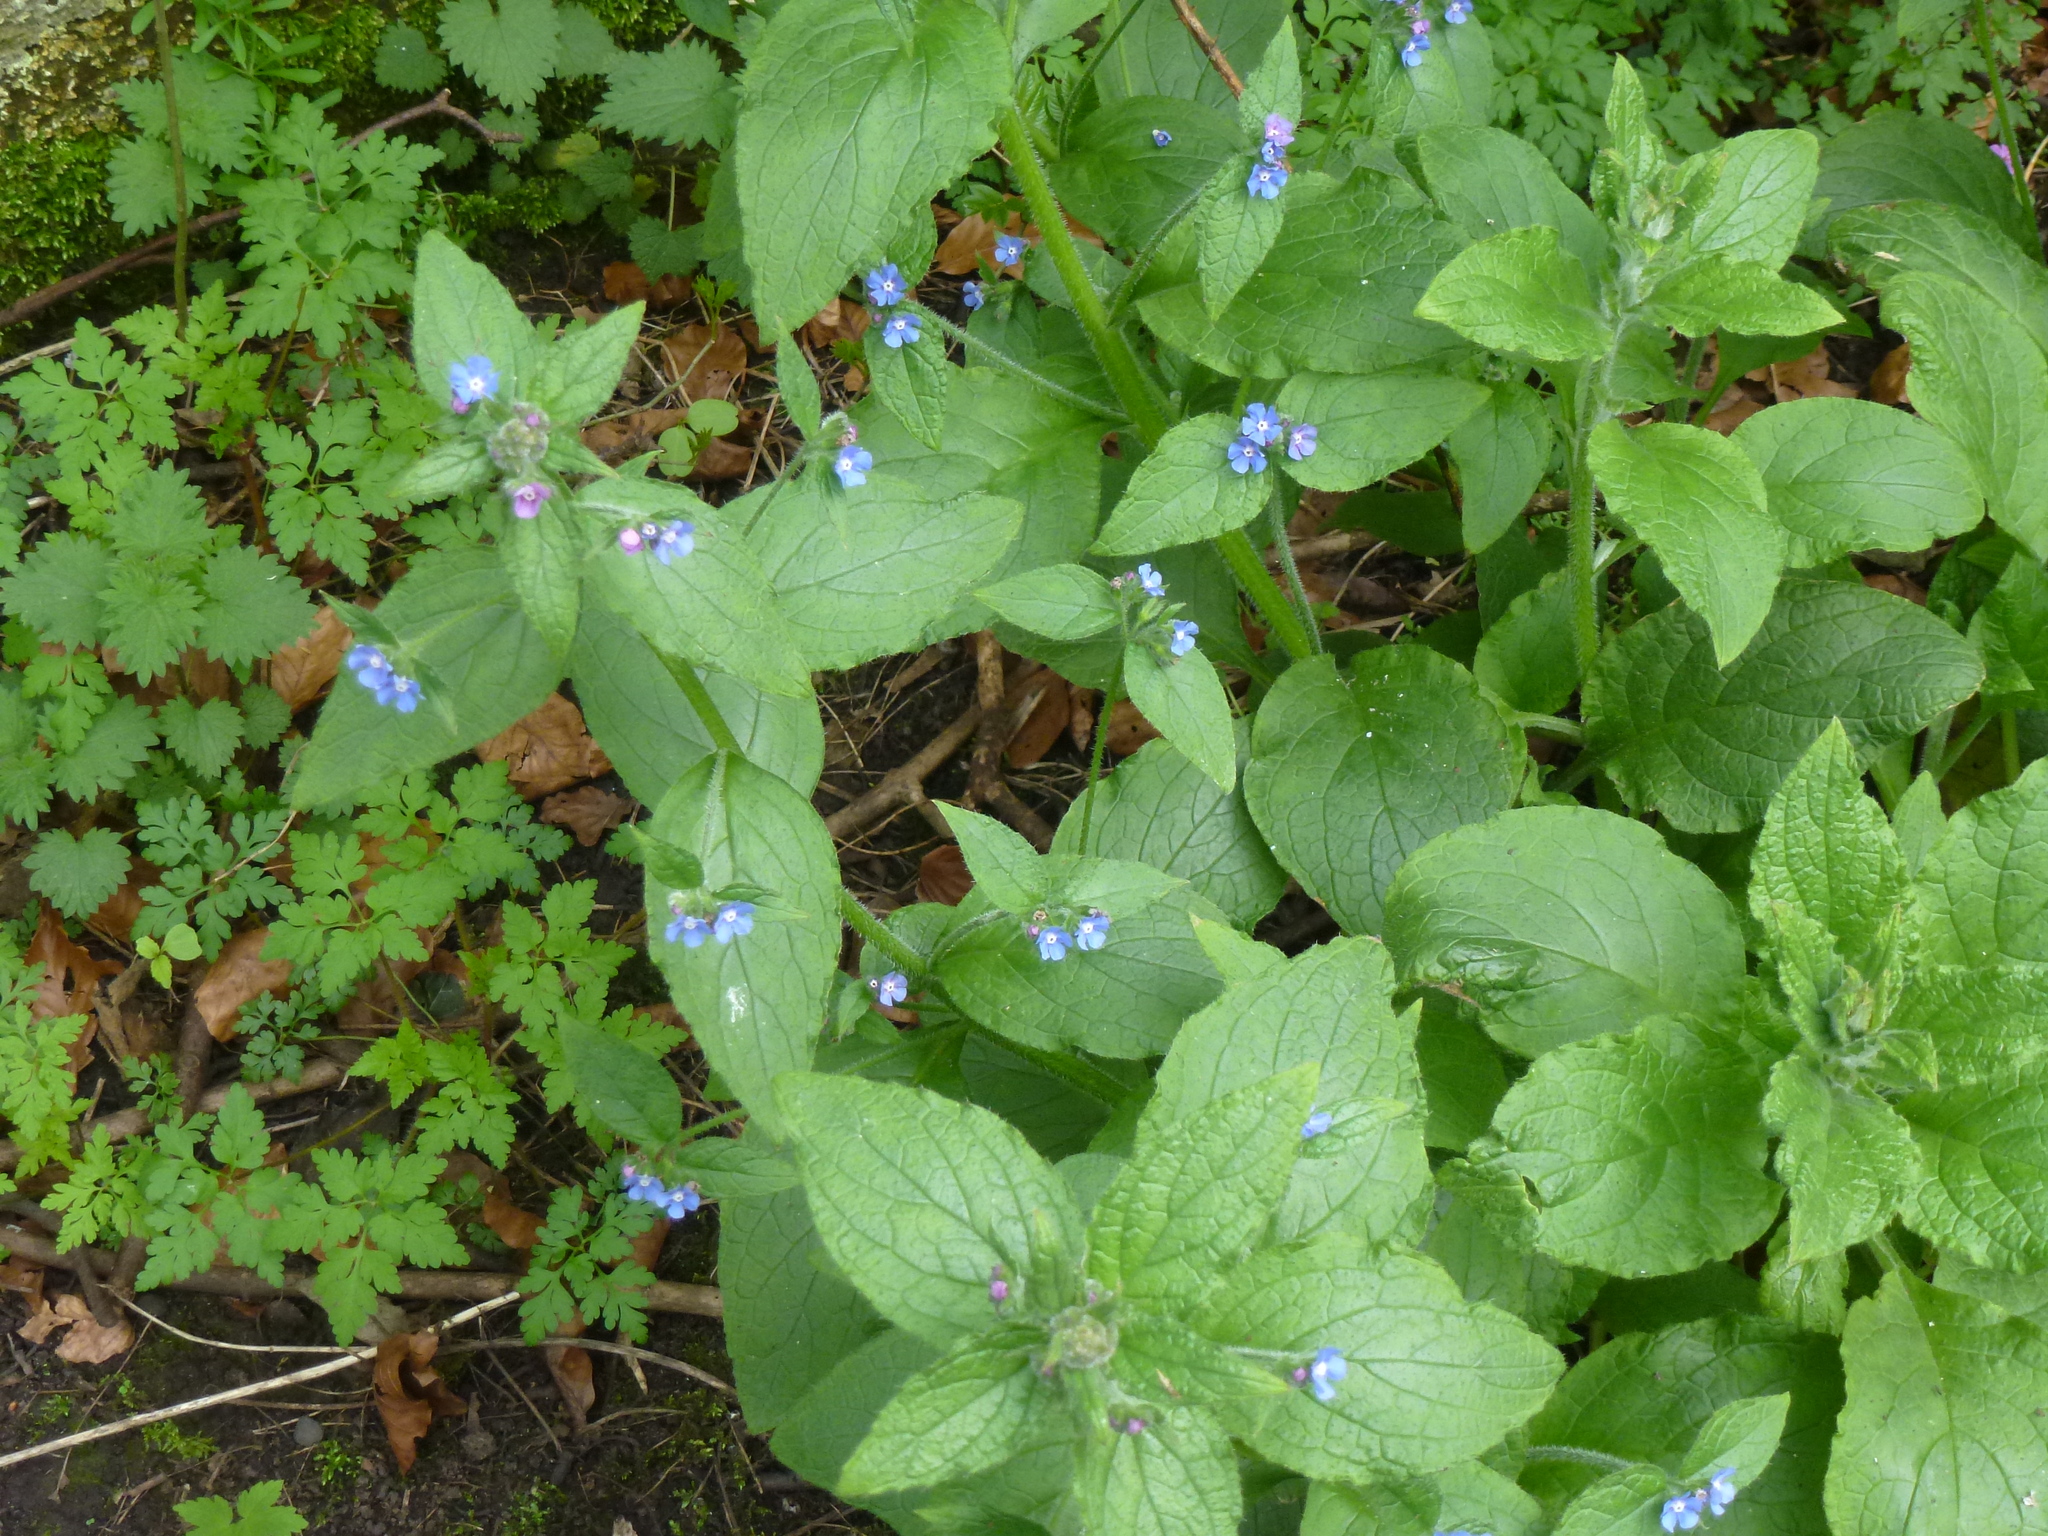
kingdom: Plantae
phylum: Tracheophyta
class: Magnoliopsida
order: Boraginales
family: Boraginaceae
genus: Pentaglottis
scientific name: Pentaglottis sempervirens
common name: Green alkanet
